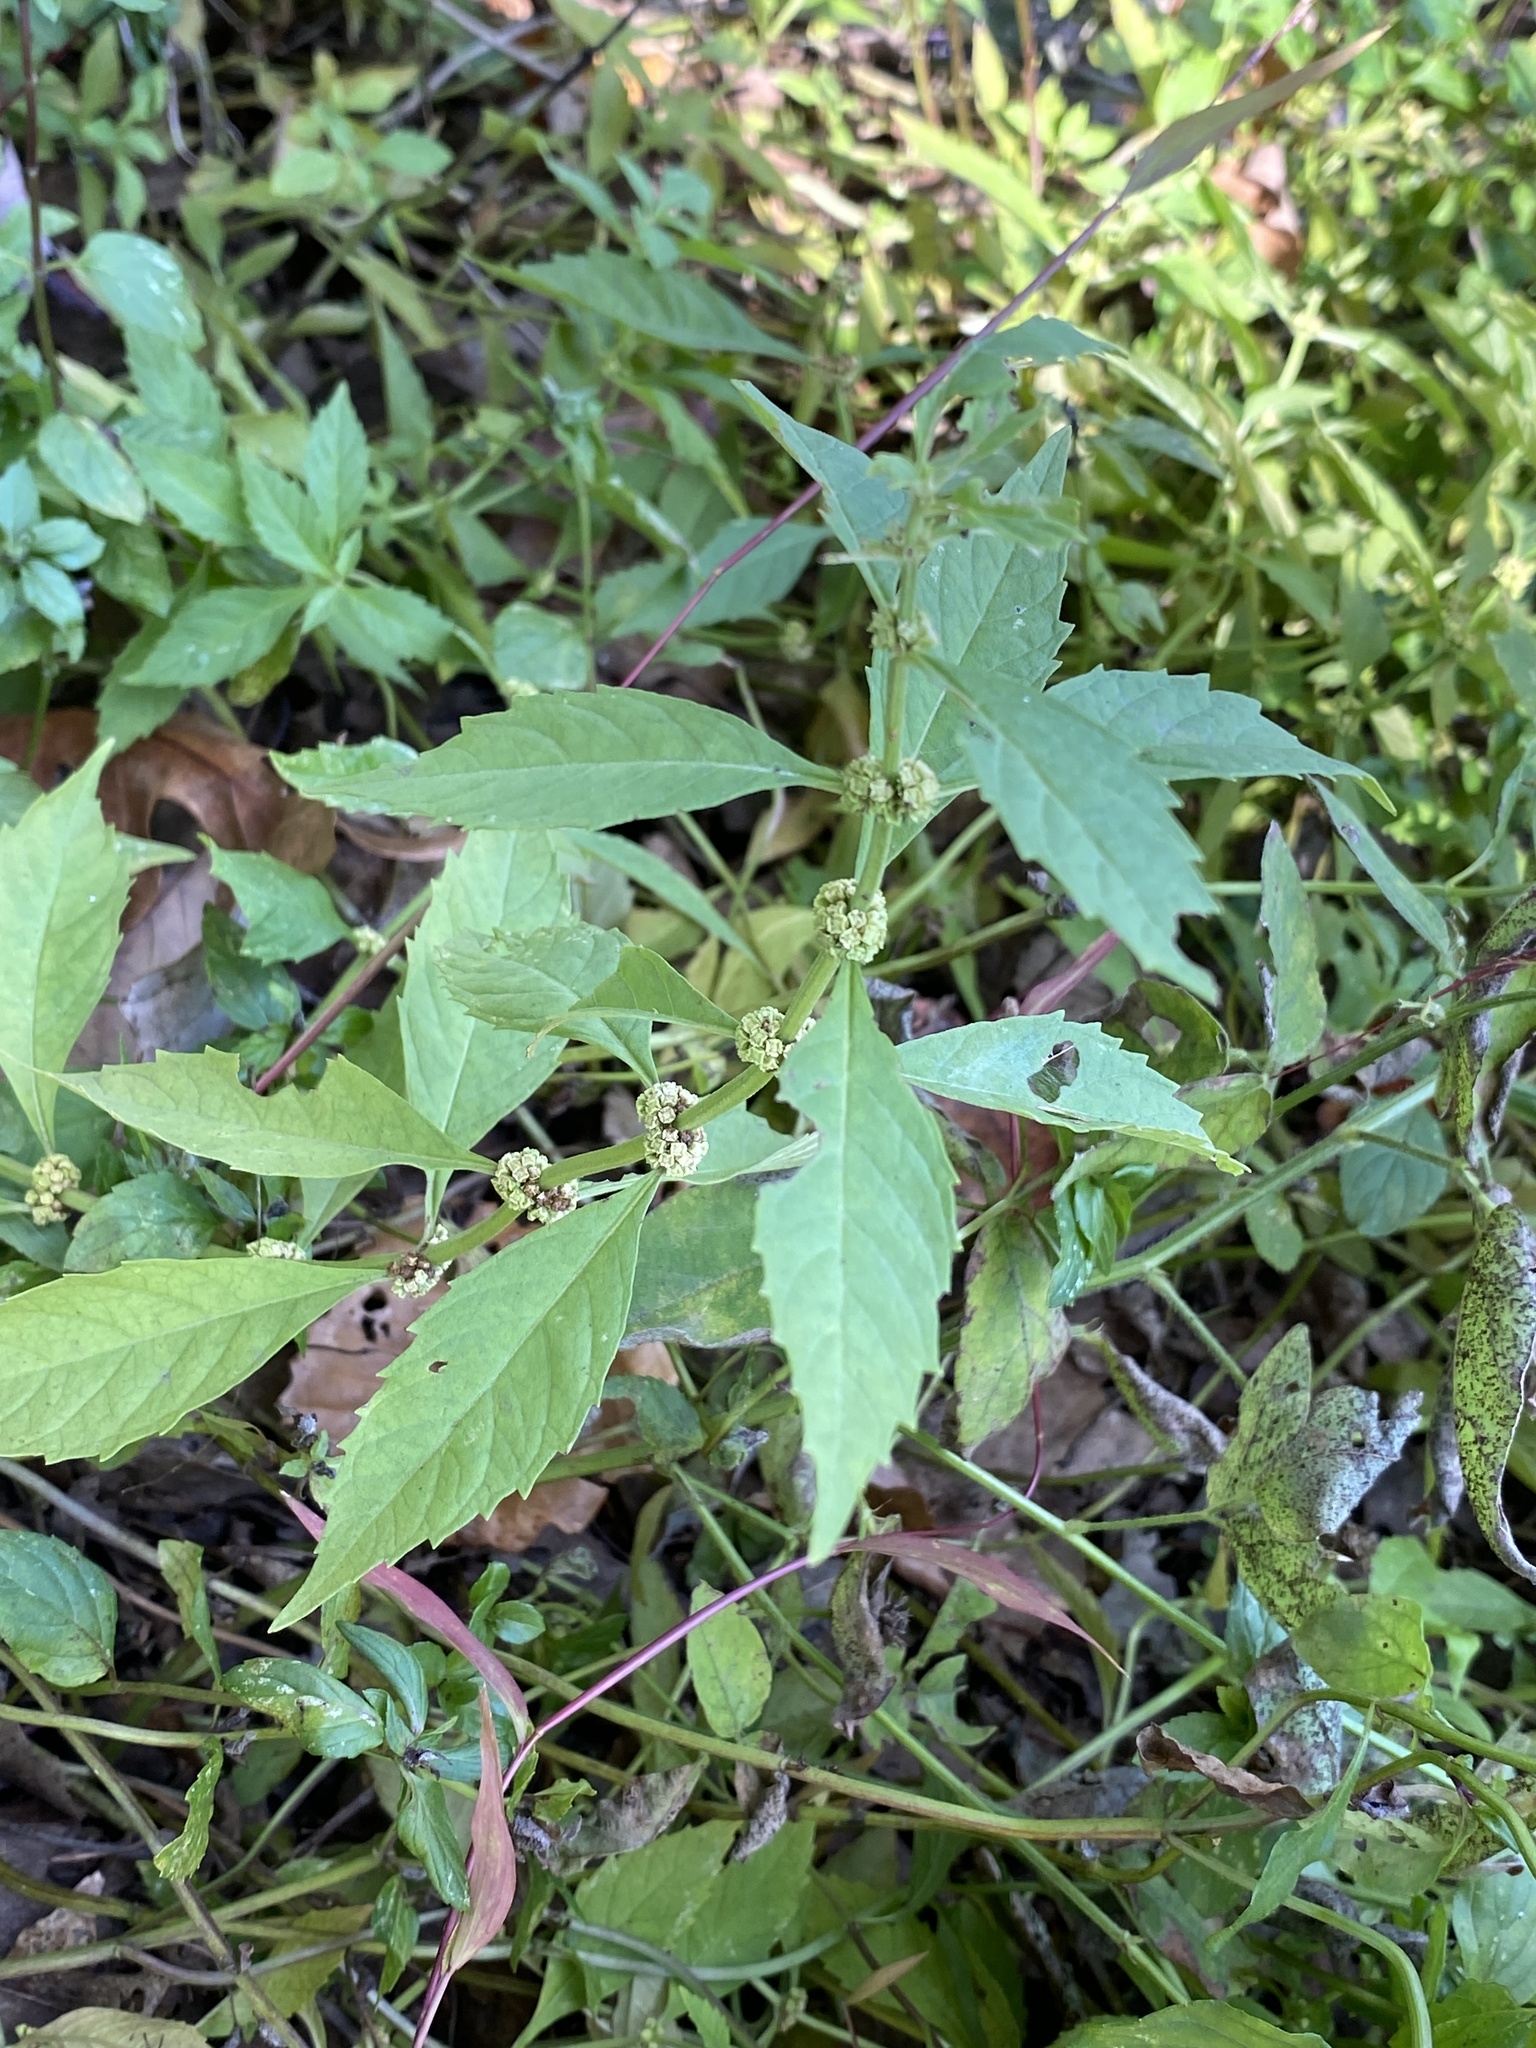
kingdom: Plantae
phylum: Tracheophyta
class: Magnoliopsida
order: Lamiales
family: Lamiaceae
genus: Lycopus
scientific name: Lycopus virginicus
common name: Bugleweed
